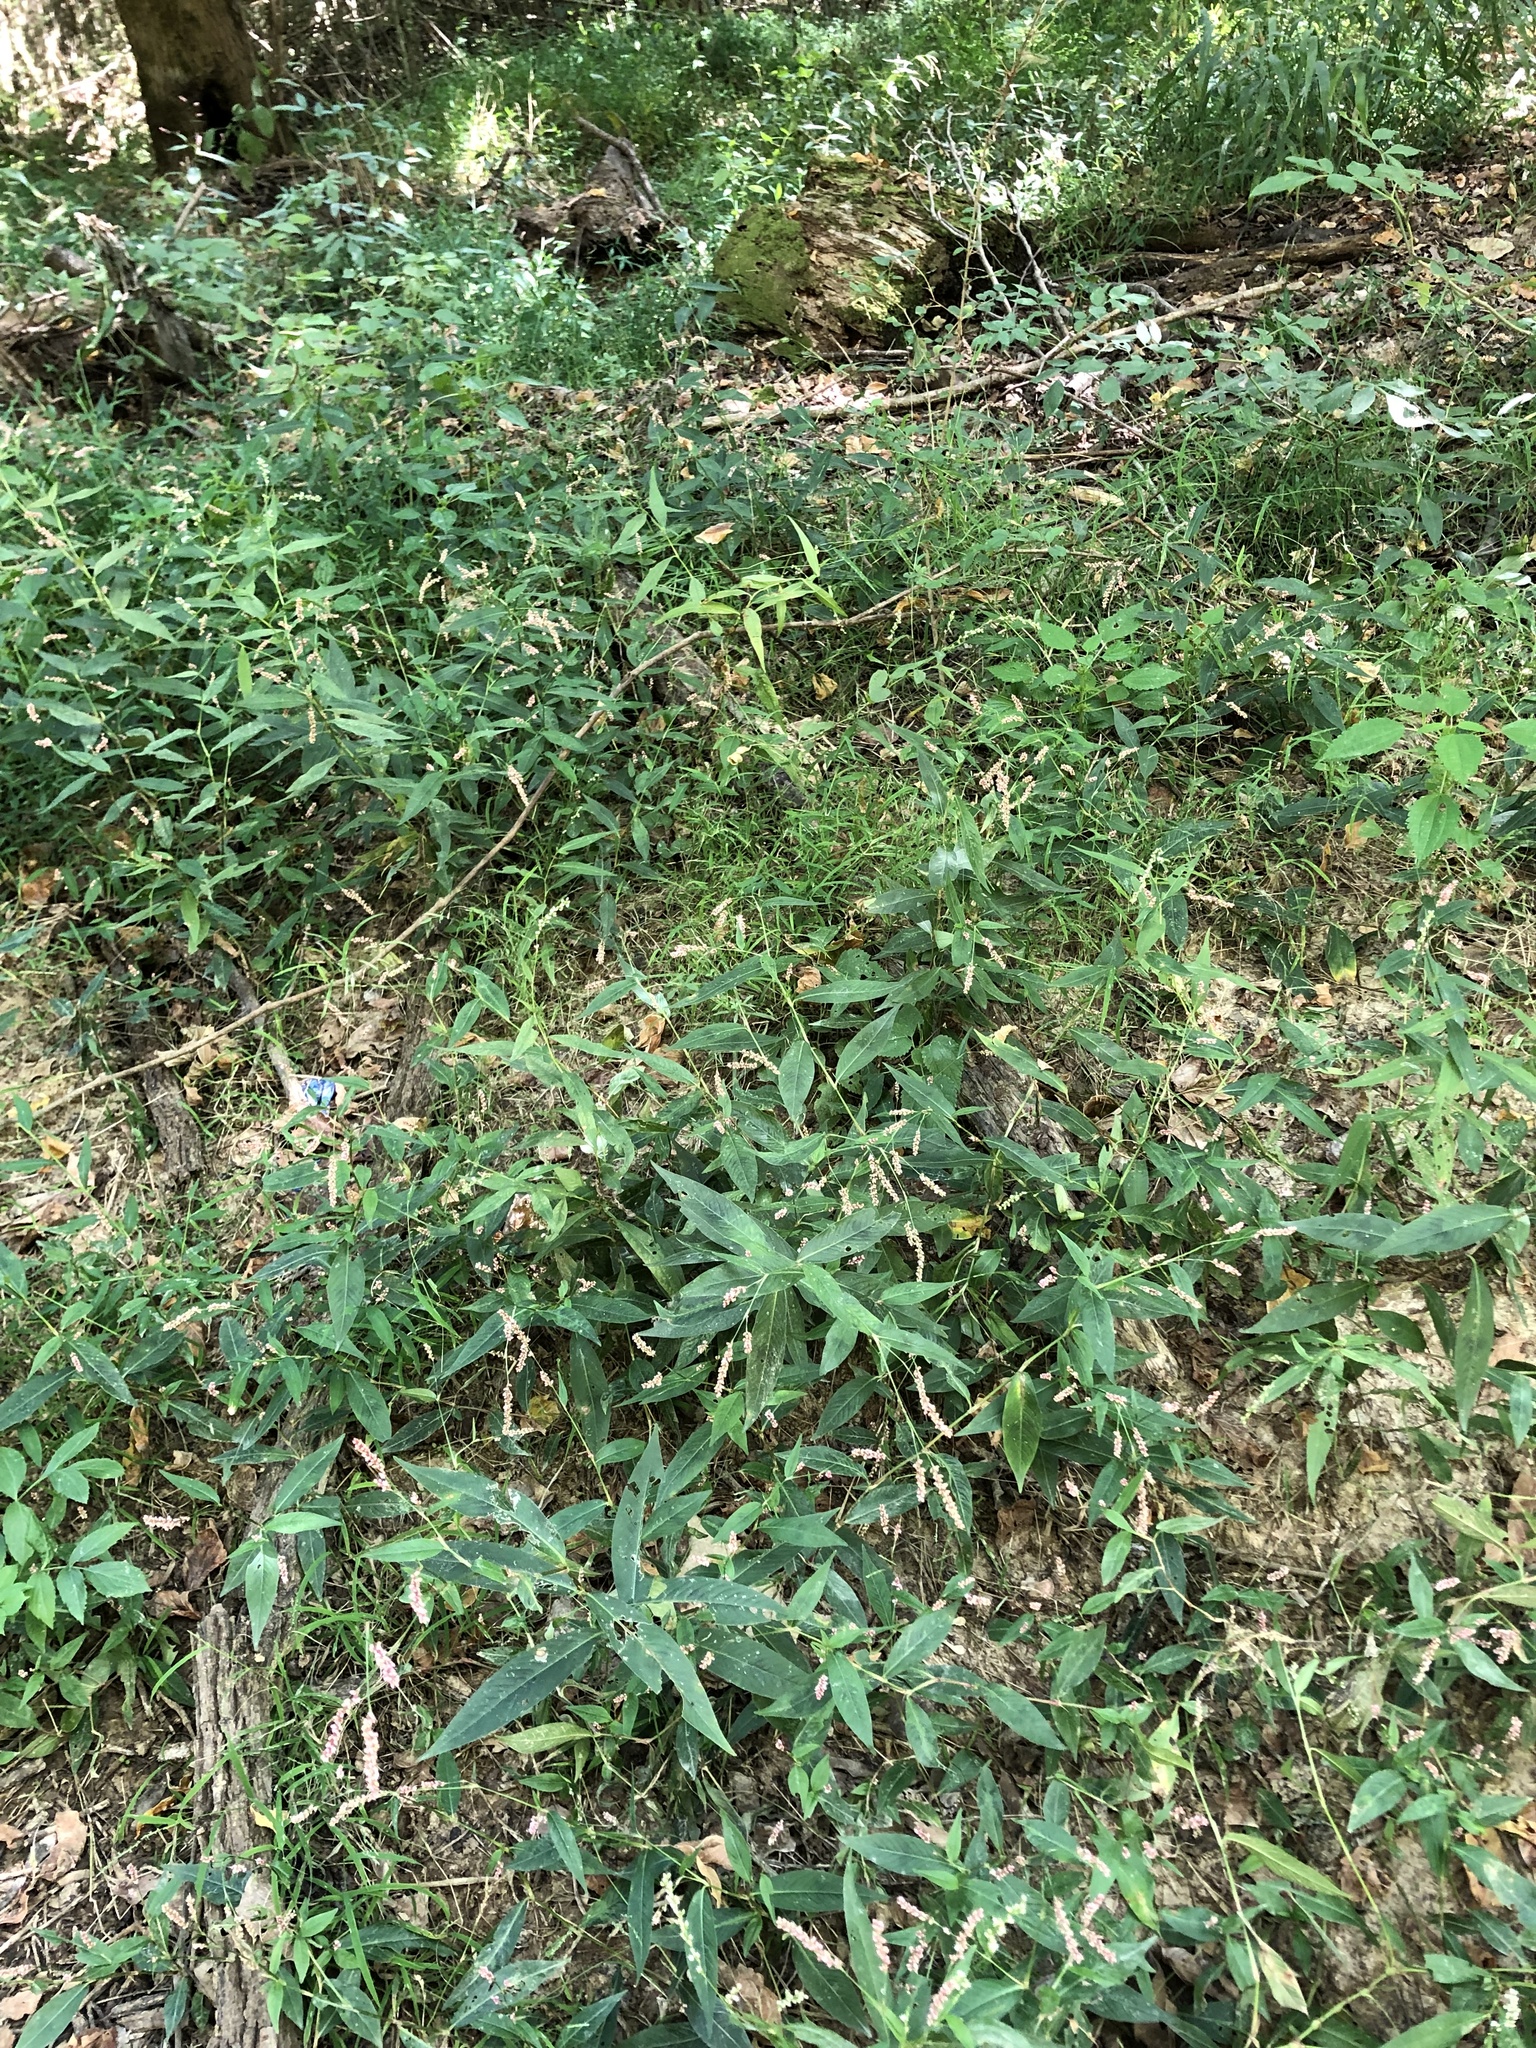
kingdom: Plantae
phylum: Tracheophyta
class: Magnoliopsida
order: Caryophyllales
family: Polygonaceae
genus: Persicaria
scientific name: Persicaria longiseta
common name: Bristly lady's-thumb
